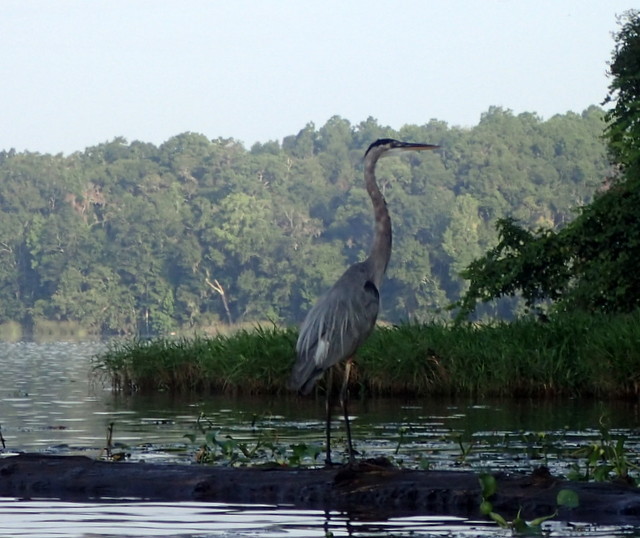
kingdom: Animalia
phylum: Chordata
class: Aves
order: Pelecaniformes
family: Ardeidae
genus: Ardea
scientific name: Ardea herodias
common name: Great blue heron
